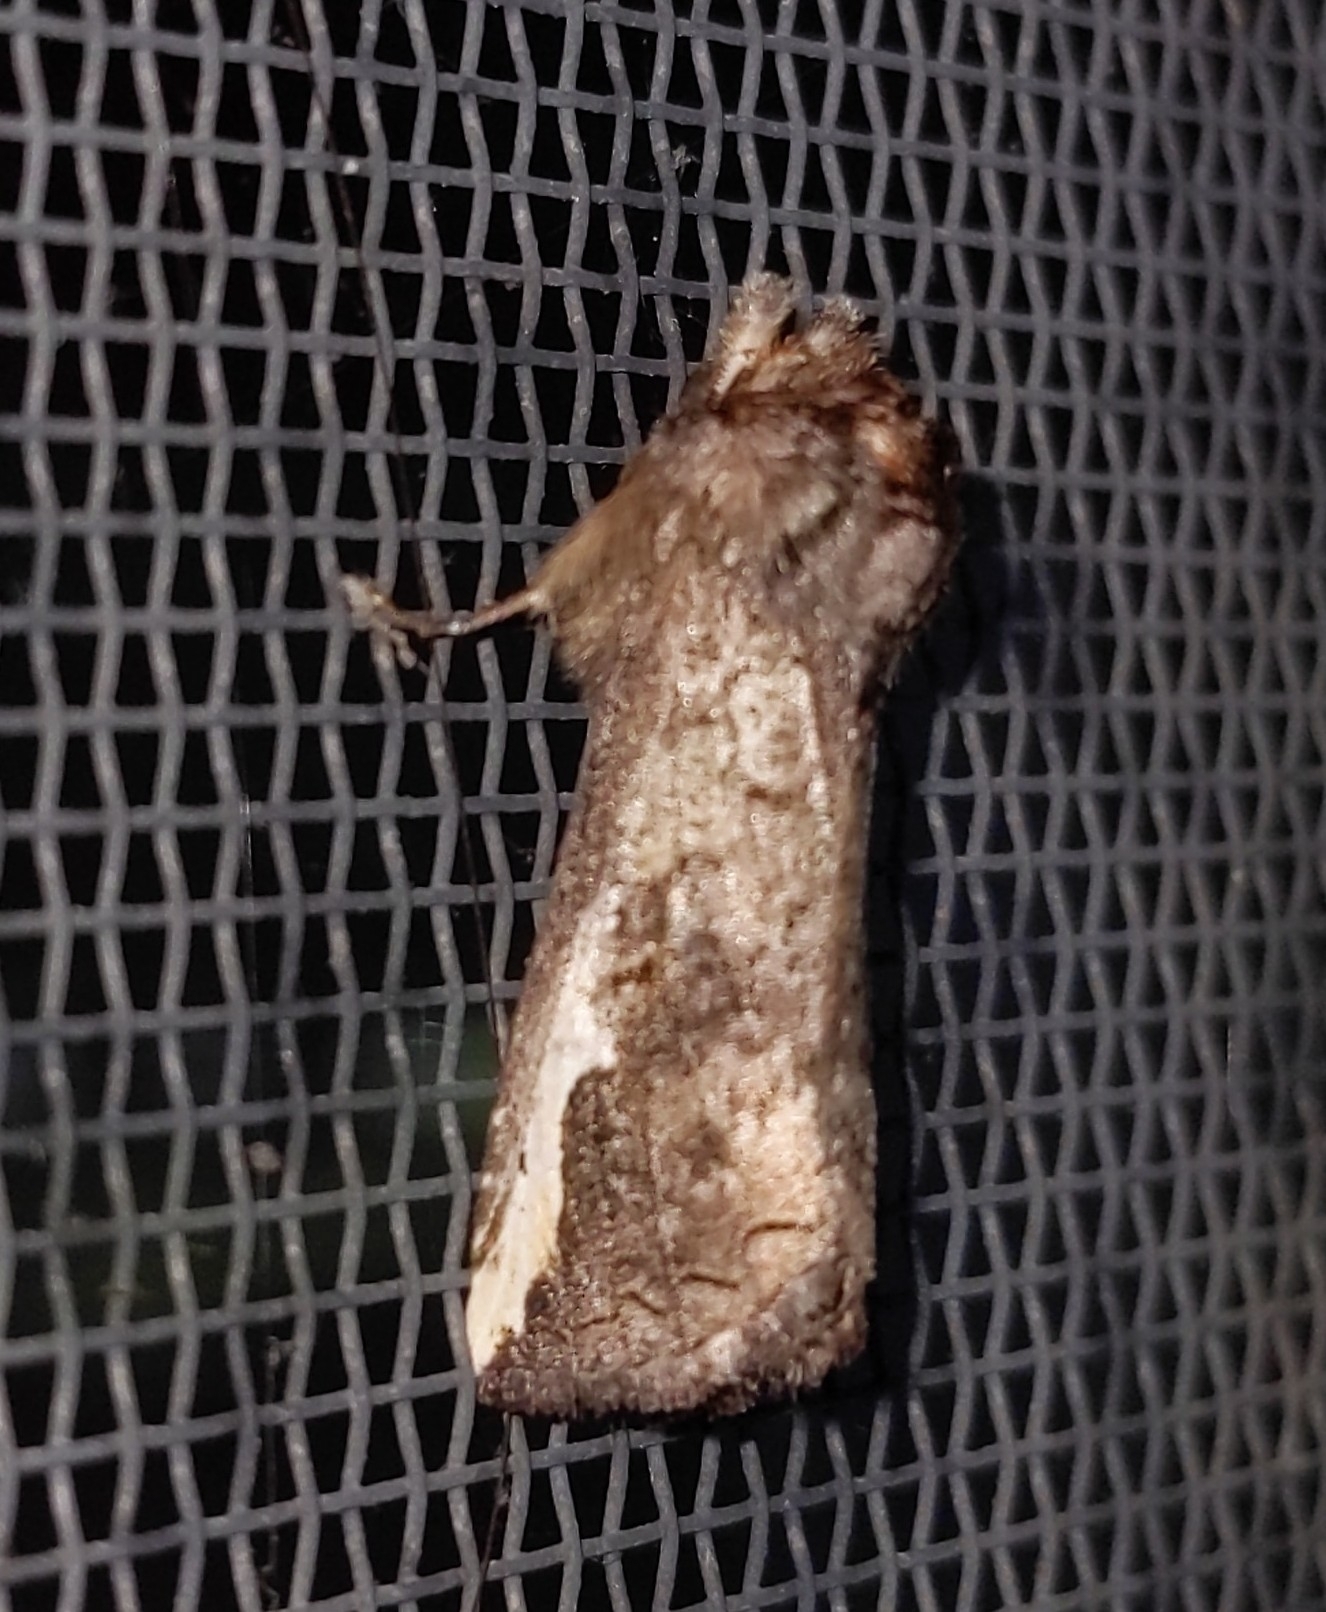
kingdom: Animalia
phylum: Arthropoda
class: Insecta
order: Lepidoptera
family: Notodontidae
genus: Symmerista
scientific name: Symmerista albifrons
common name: White-headed prominent
